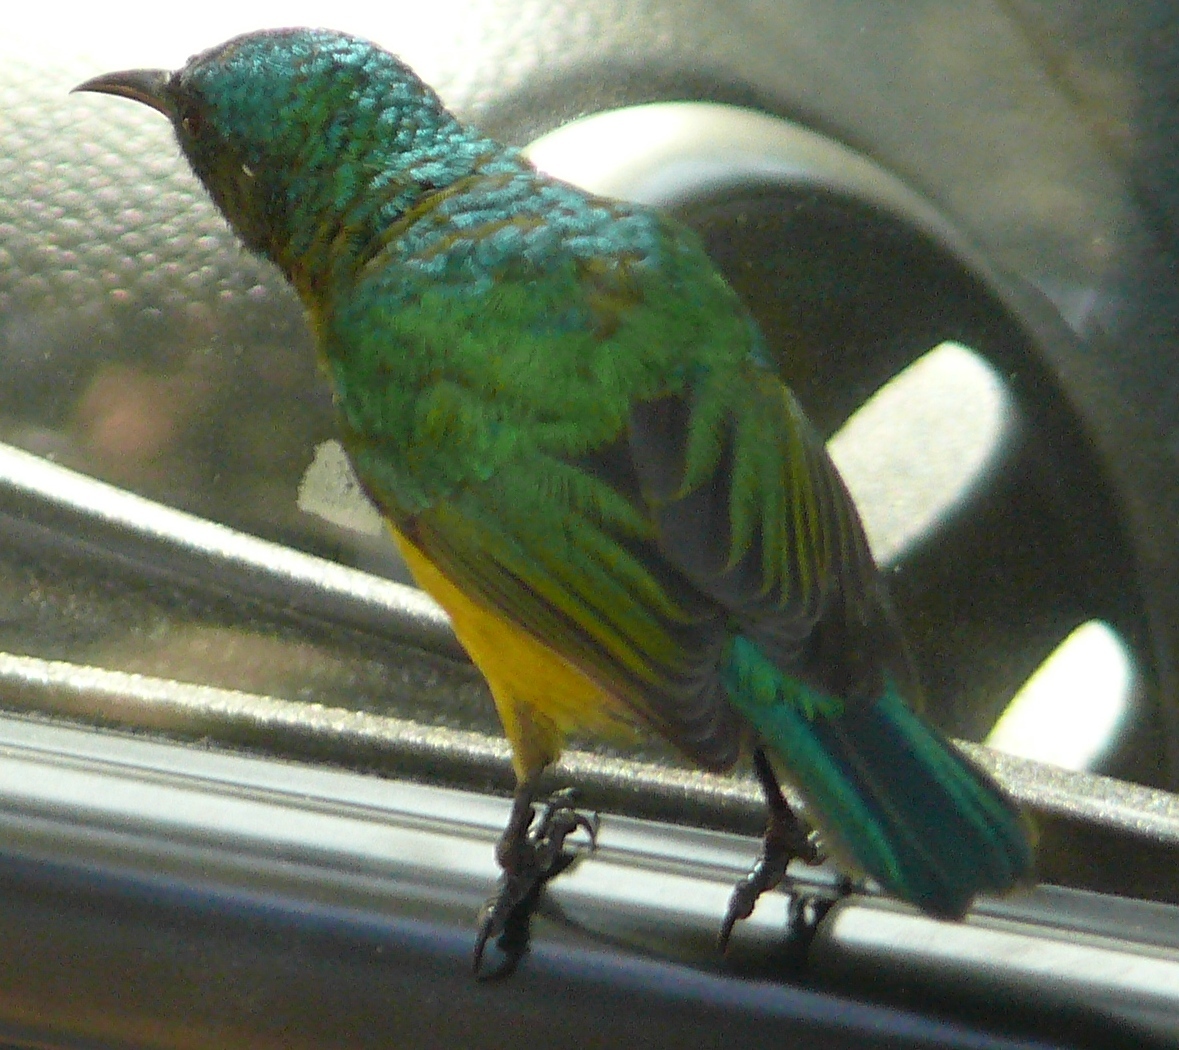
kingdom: Animalia
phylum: Chordata
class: Aves
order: Passeriformes
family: Nectariniidae
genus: Hedydipna
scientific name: Hedydipna collaris
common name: Collared sunbird
